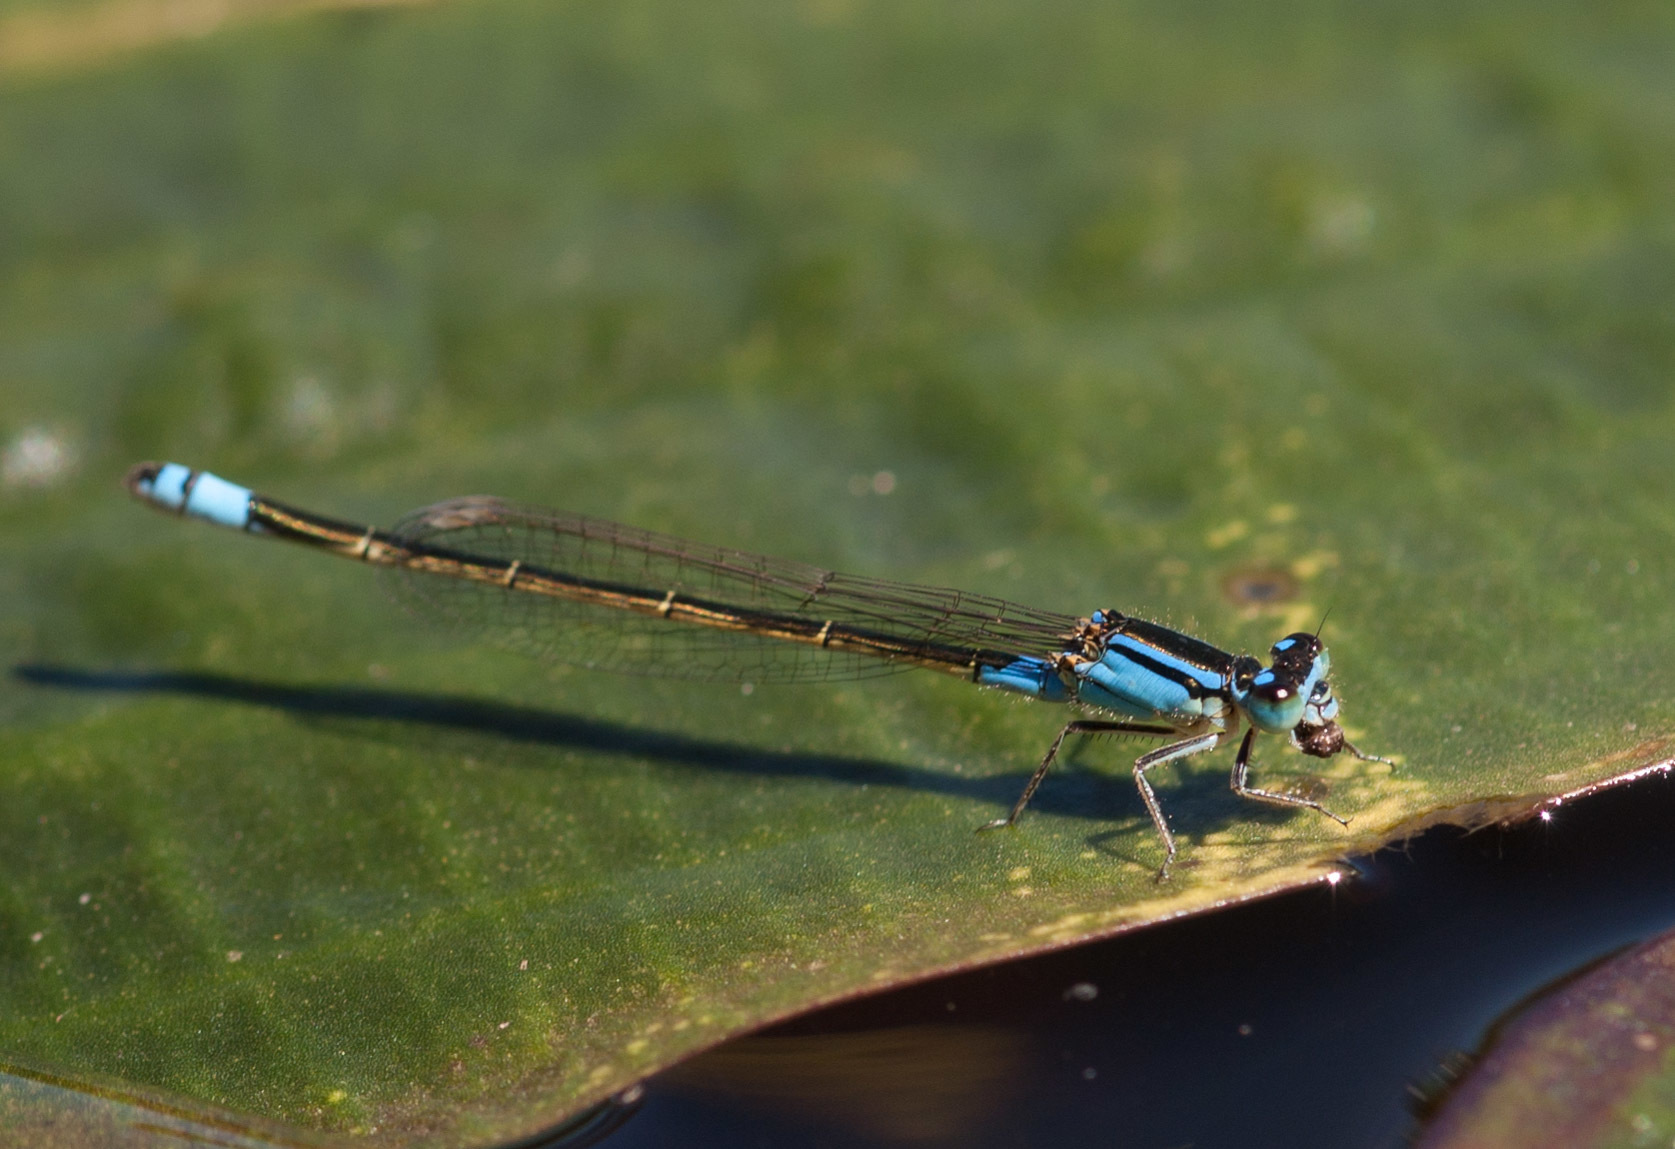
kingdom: Animalia
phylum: Arthropoda
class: Insecta
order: Odonata
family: Coenagrionidae
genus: Ischnura
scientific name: Ischnura heterosticta
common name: Common bluetail
